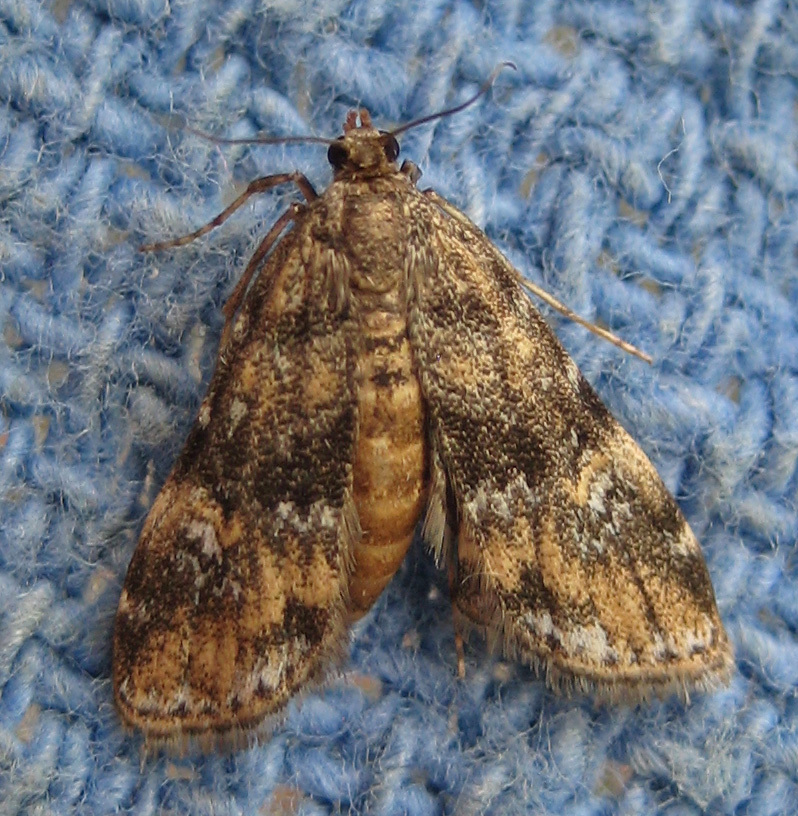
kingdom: Animalia
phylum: Arthropoda
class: Insecta
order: Lepidoptera
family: Crambidae
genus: Elophila
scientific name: Elophila obliteralis
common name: Waterlily leafcutter moth
